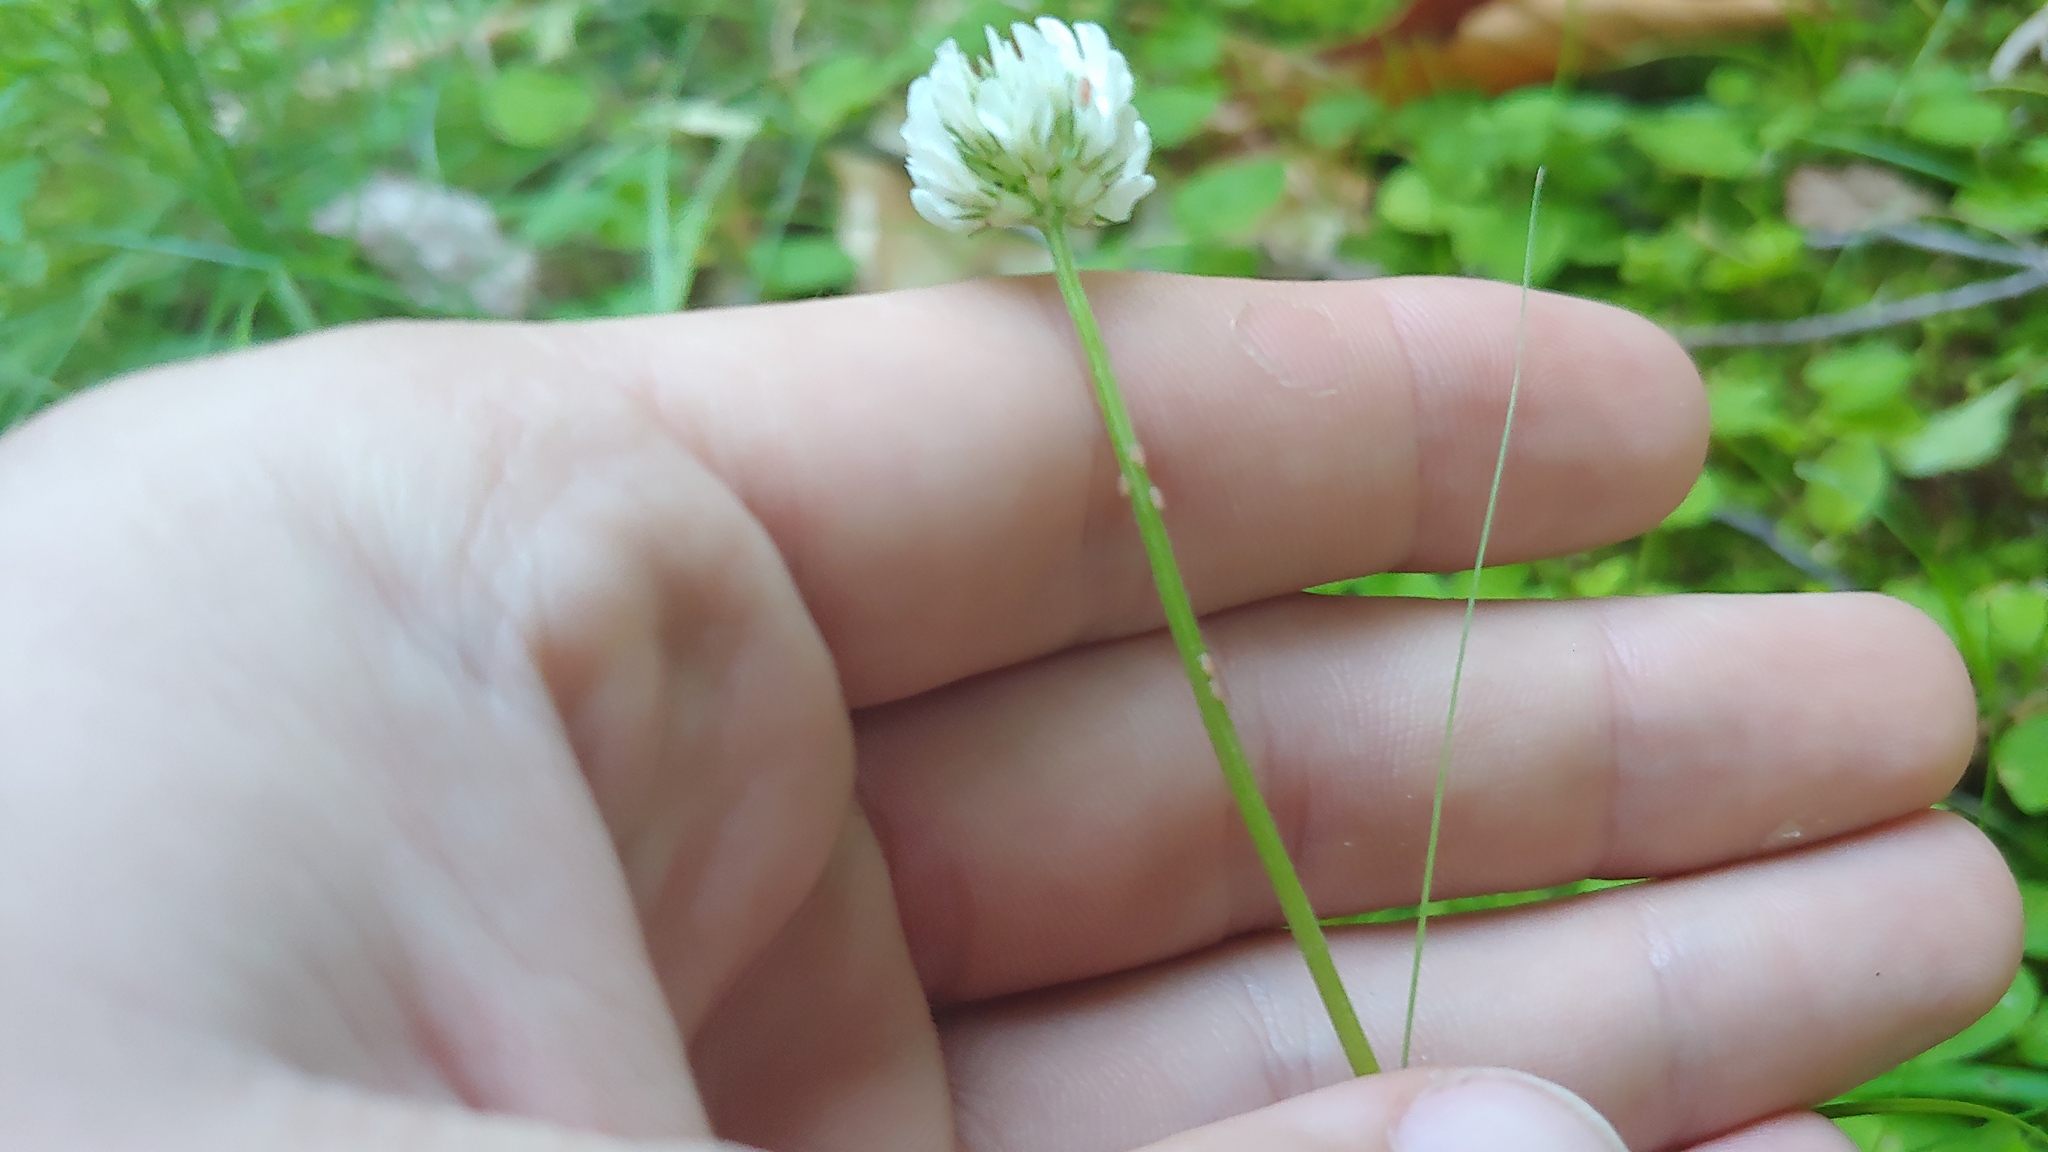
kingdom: Plantae
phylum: Tracheophyta
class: Magnoliopsida
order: Fabales
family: Fabaceae
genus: Trifolium
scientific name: Trifolium repens
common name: White clover
